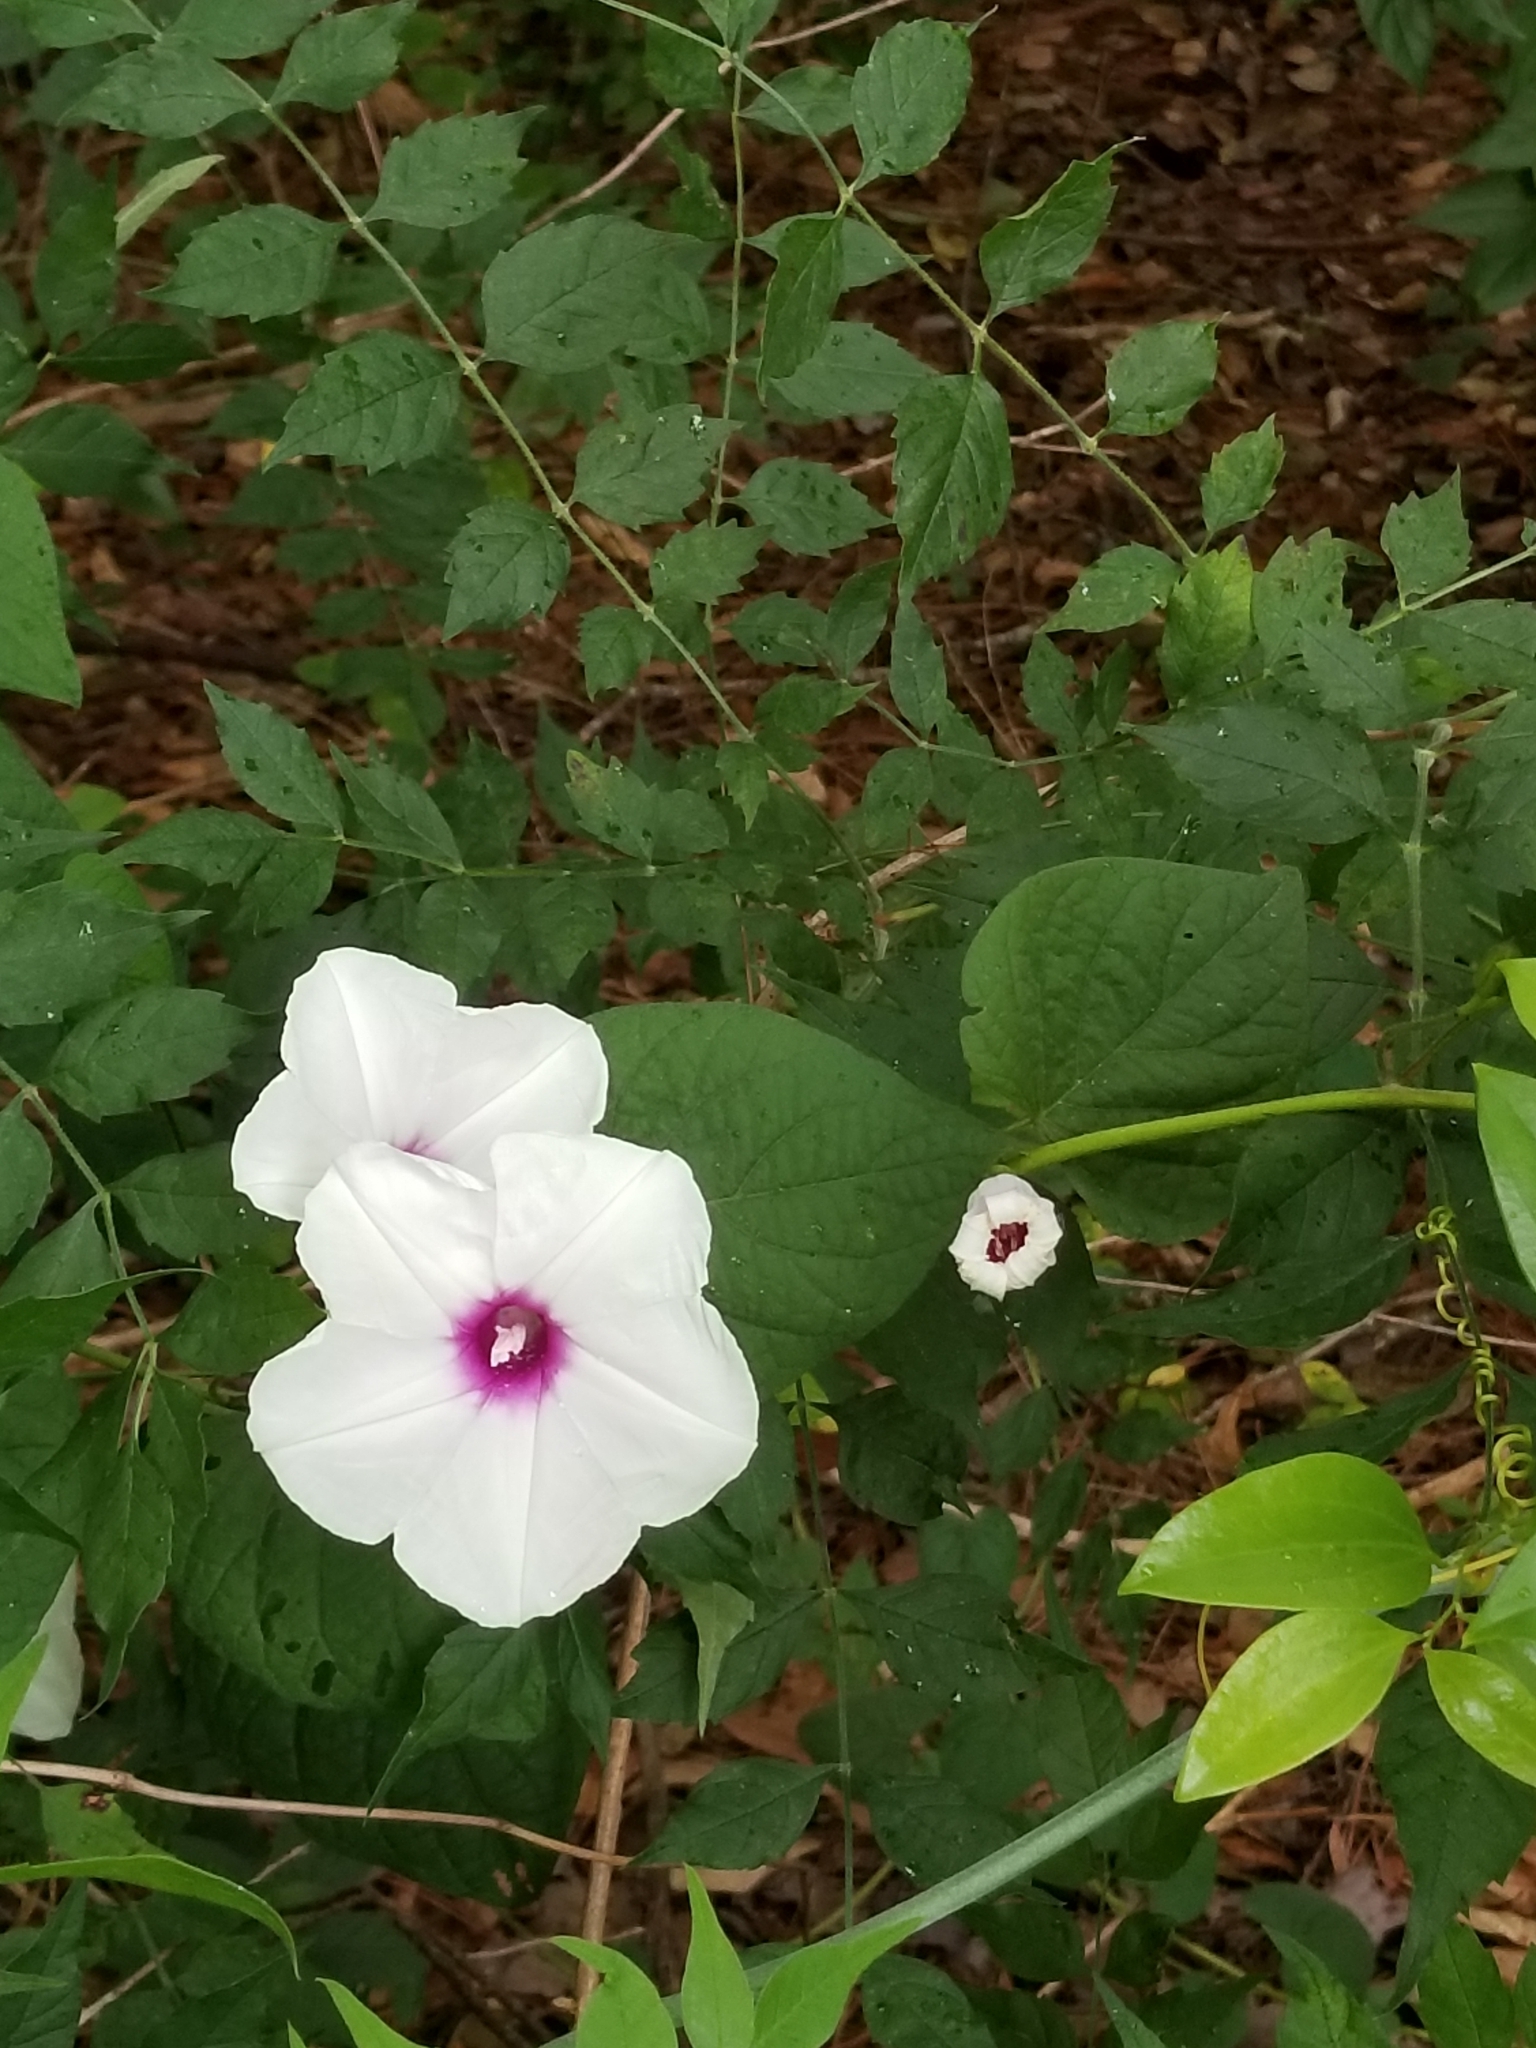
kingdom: Plantae
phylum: Tracheophyta
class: Magnoliopsida
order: Solanales
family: Convolvulaceae
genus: Ipomoea
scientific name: Ipomoea pandurata
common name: Man-of-the-earth
